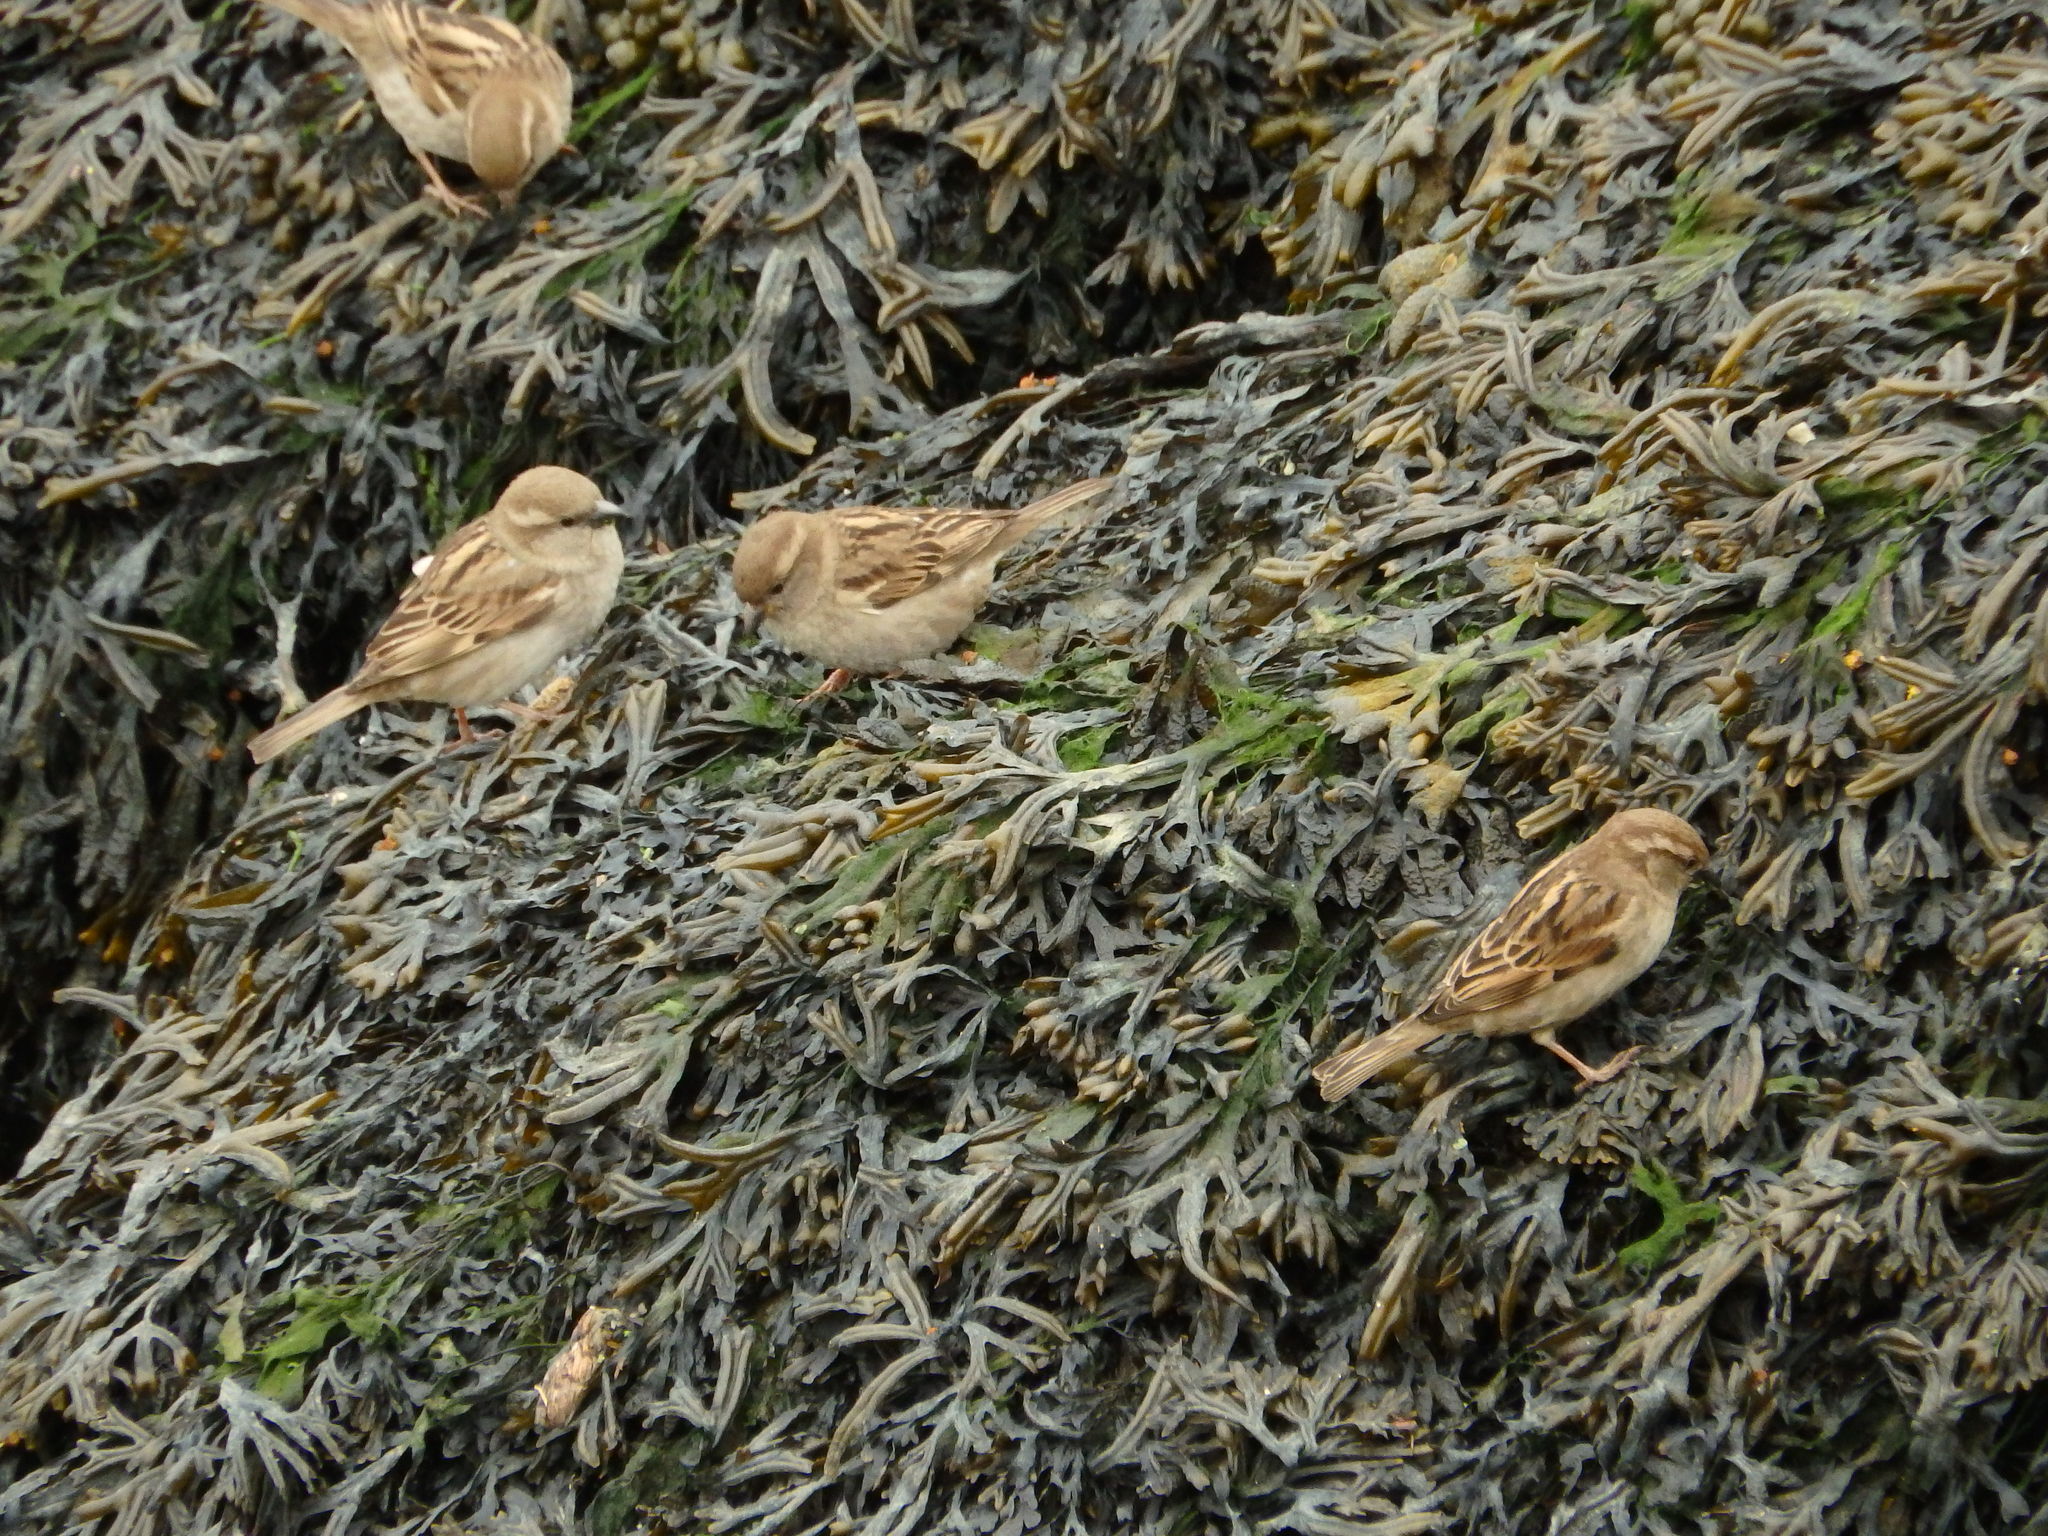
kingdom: Chromista
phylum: Ochrophyta
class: Phaeophyceae
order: Fucales
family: Fucaceae
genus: Fucus
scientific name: Fucus ceranoides
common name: Horned wrack
